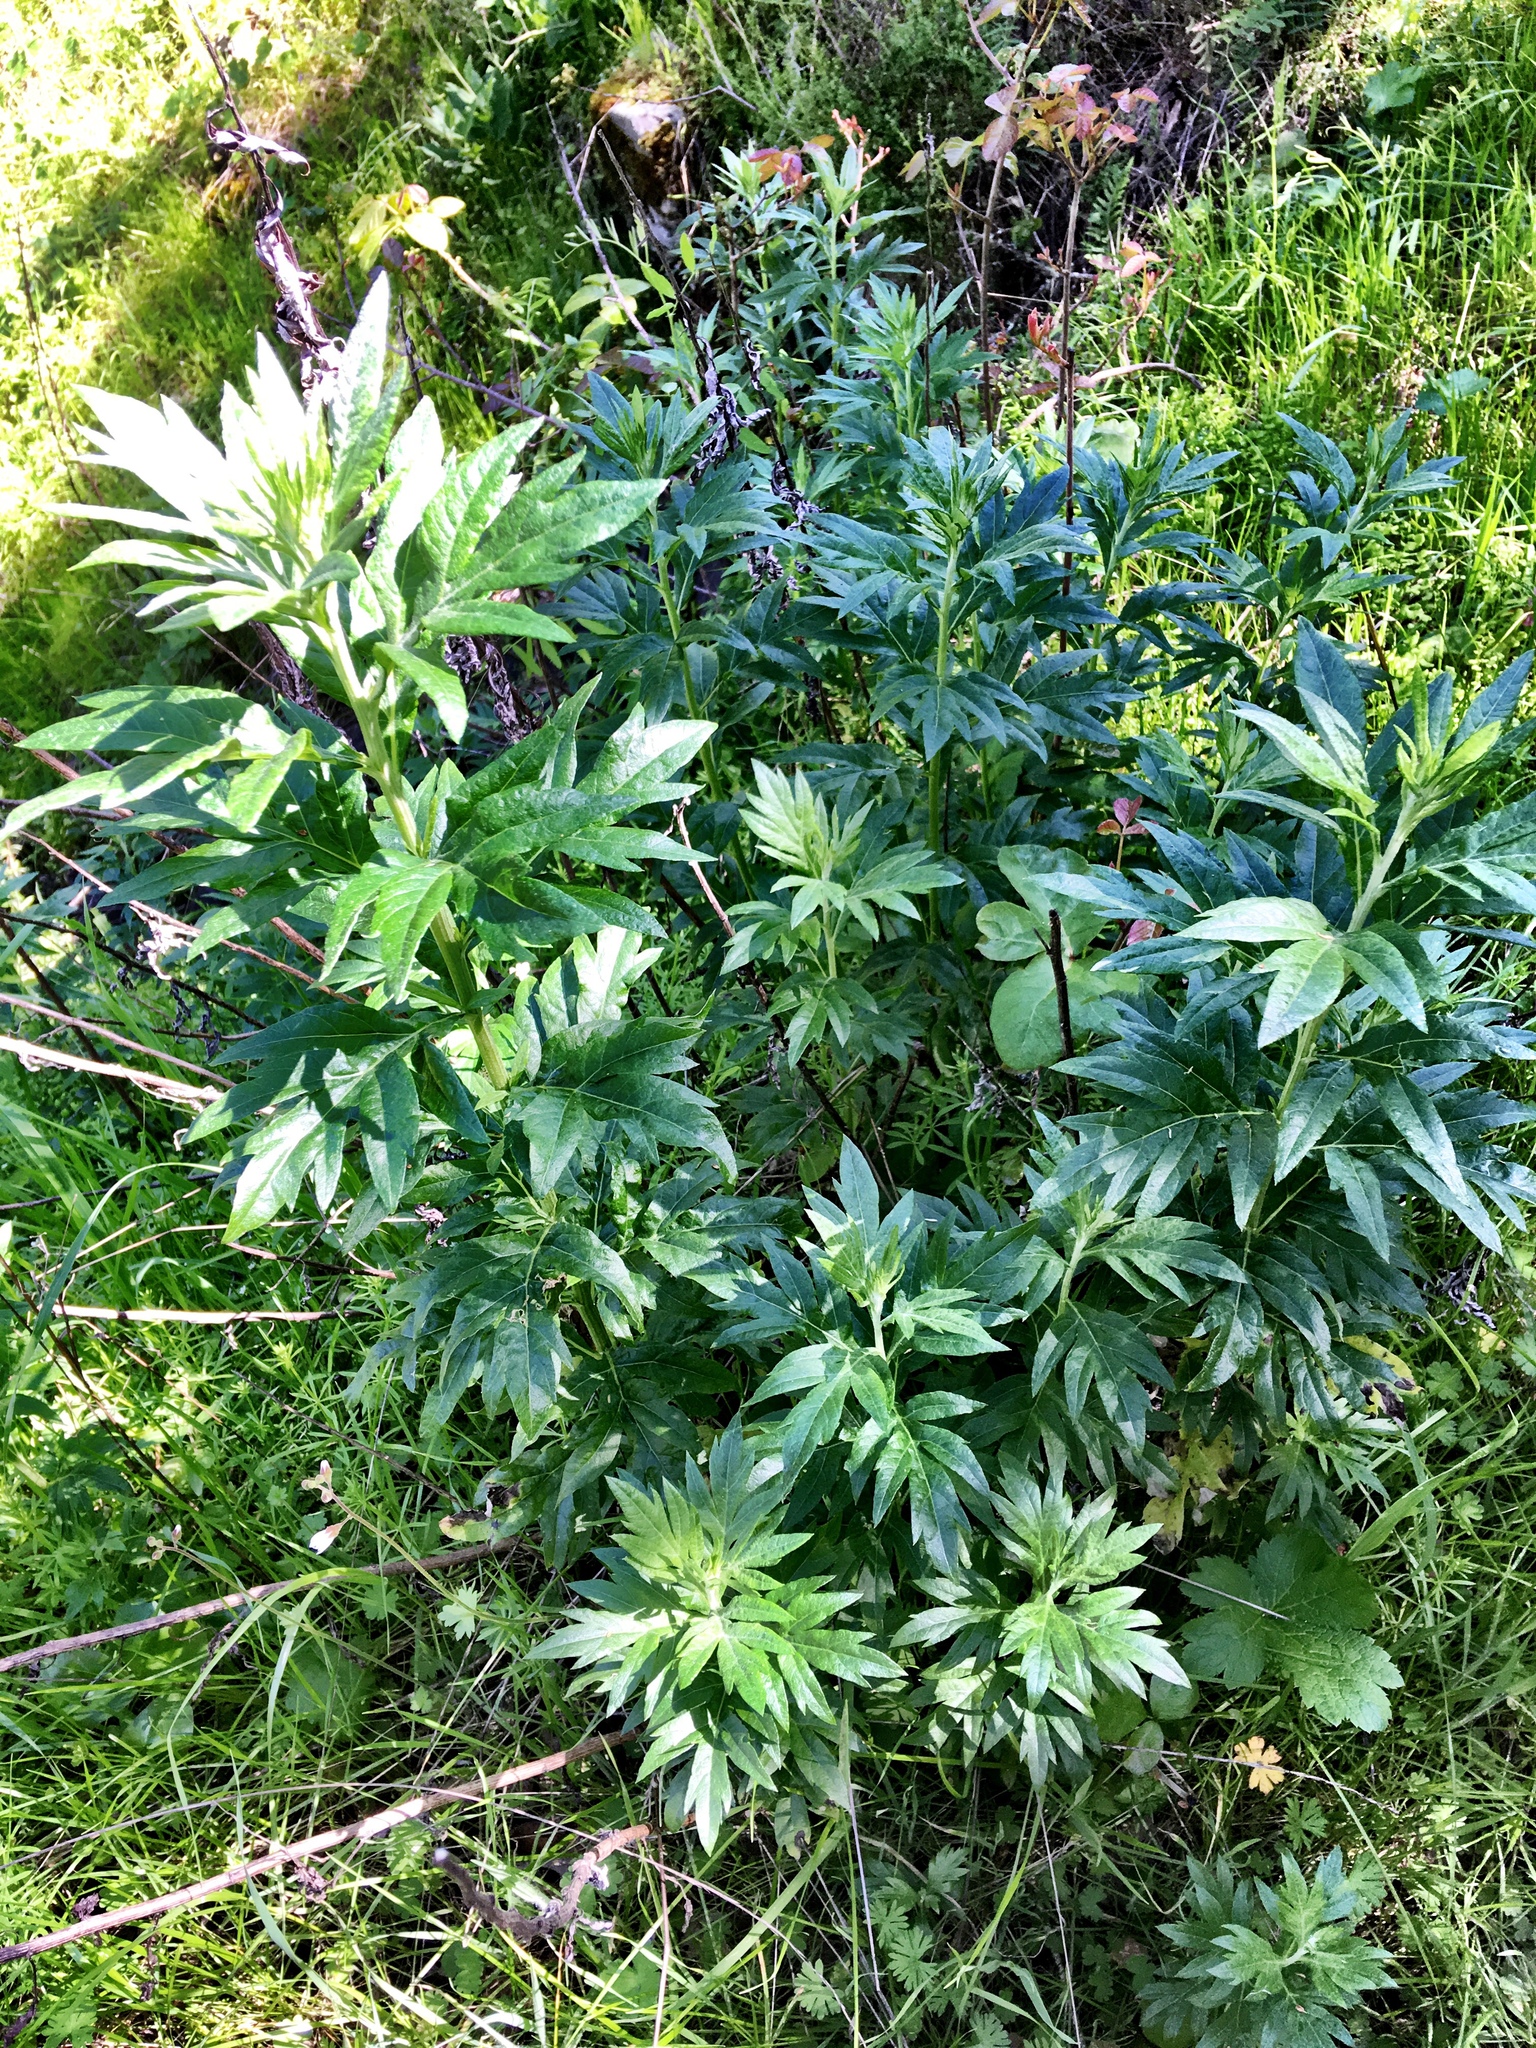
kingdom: Plantae
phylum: Tracheophyta
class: Magnoliopsida
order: Asterales
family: Asteraceae
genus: Artemisia
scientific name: Artemisia douglasiana
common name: Northwest mugwort
